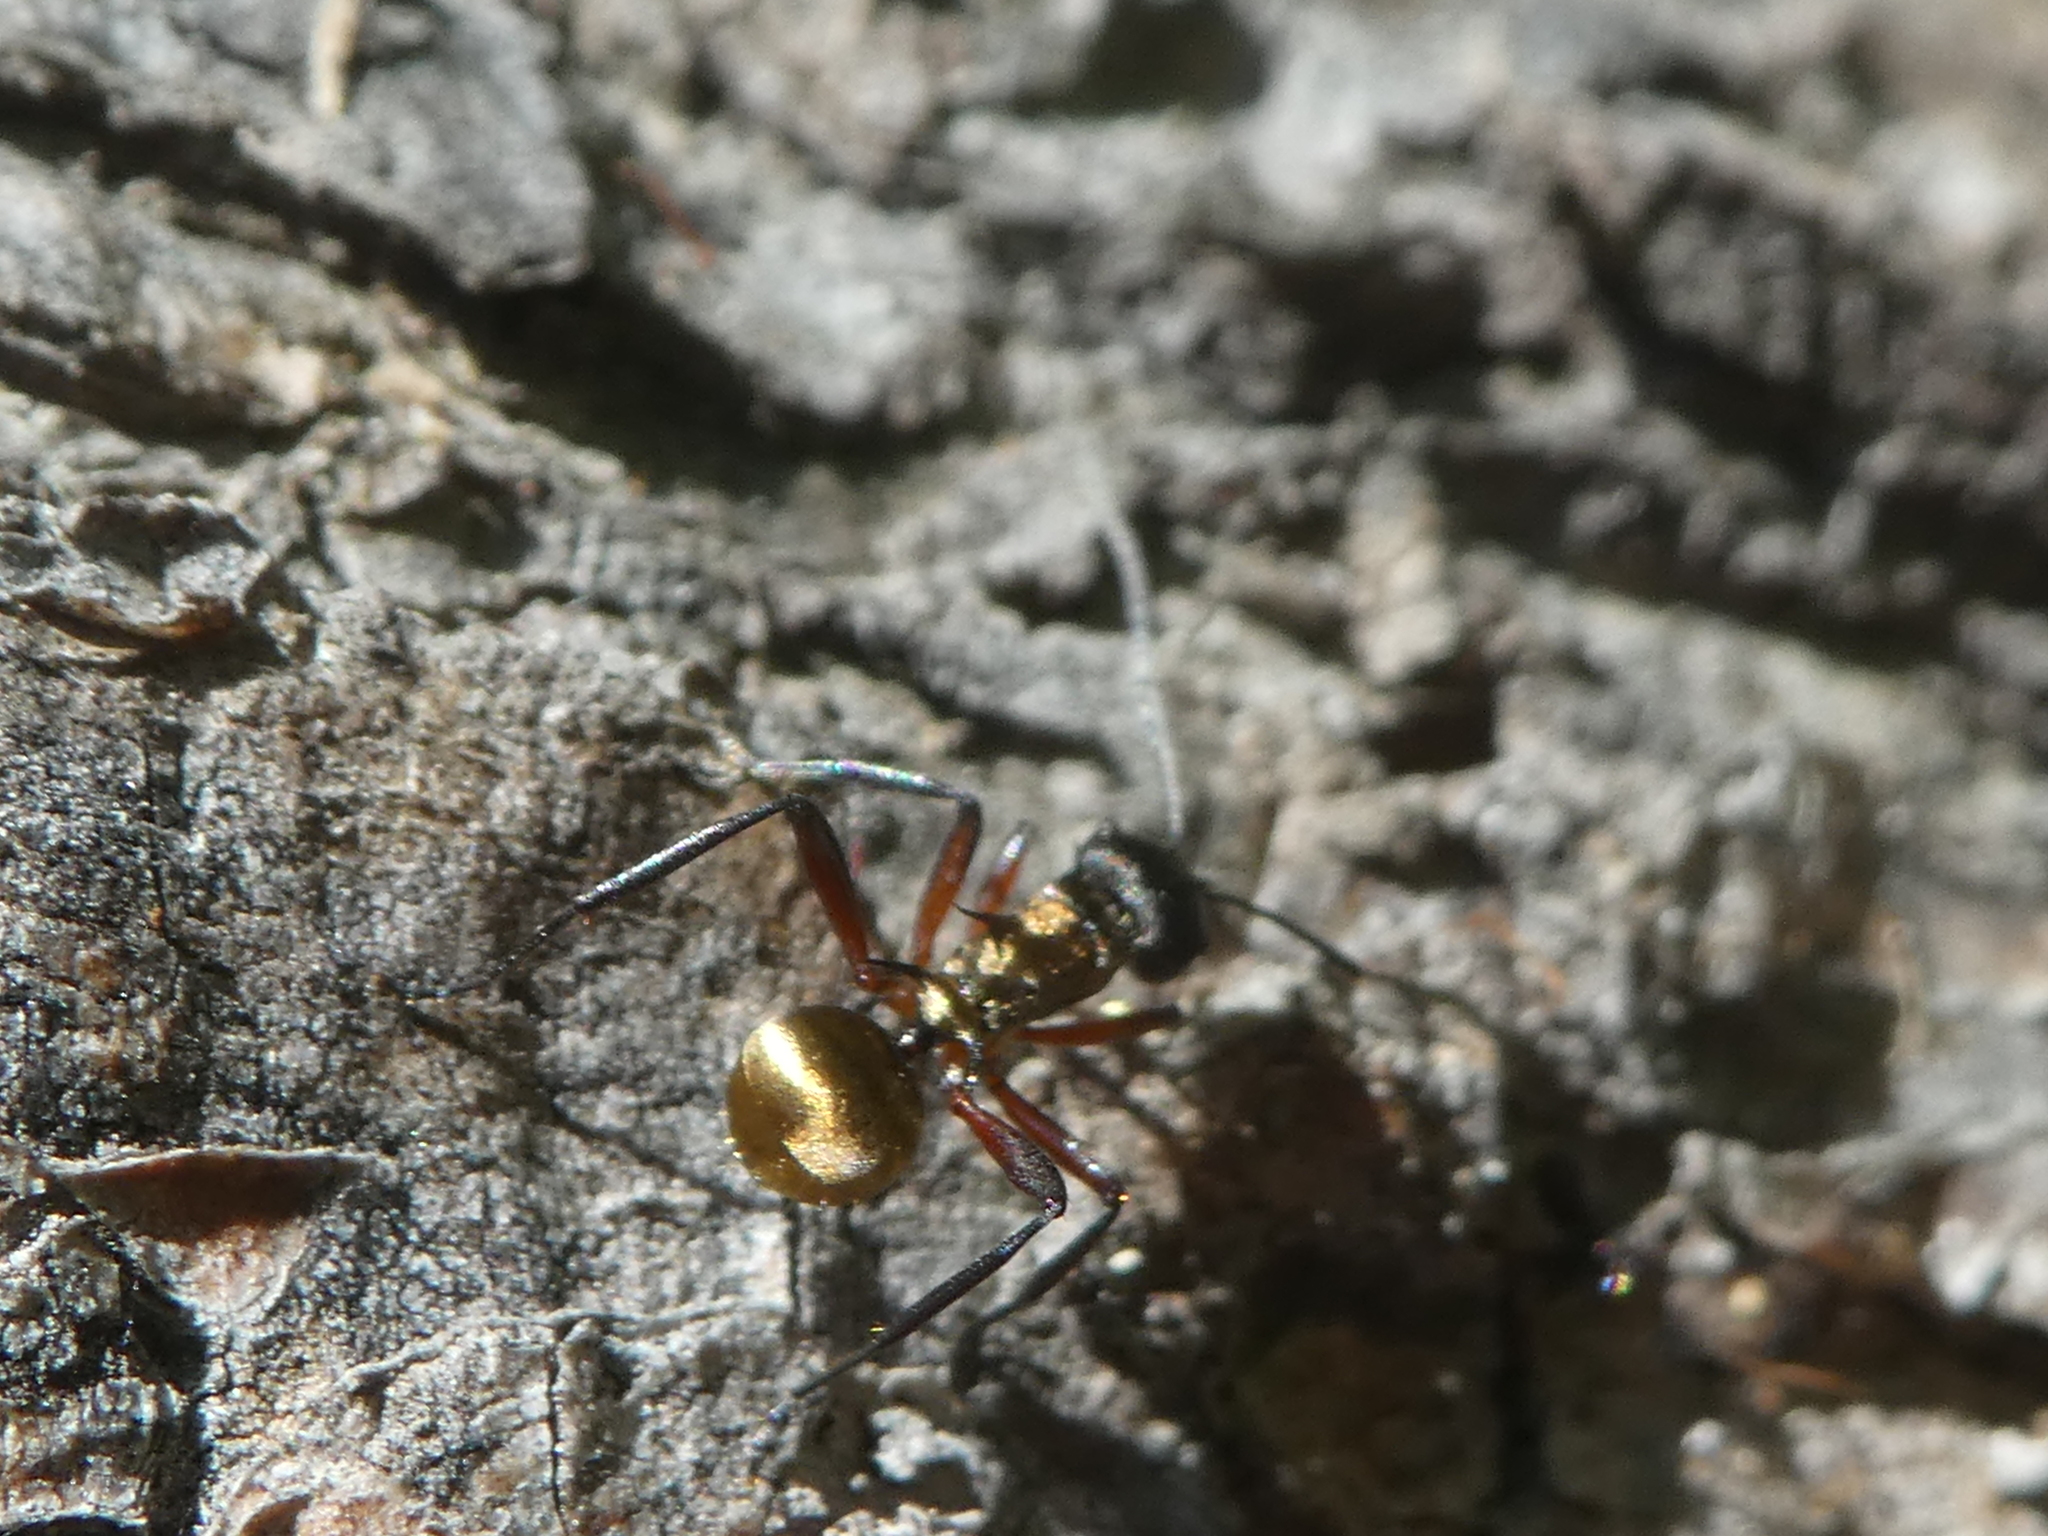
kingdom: Animalia
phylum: Arthropoda
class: Insecta
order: Hymenoptera
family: Formicidae
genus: Polyrhachis
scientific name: Polyrhachis rufifemur
